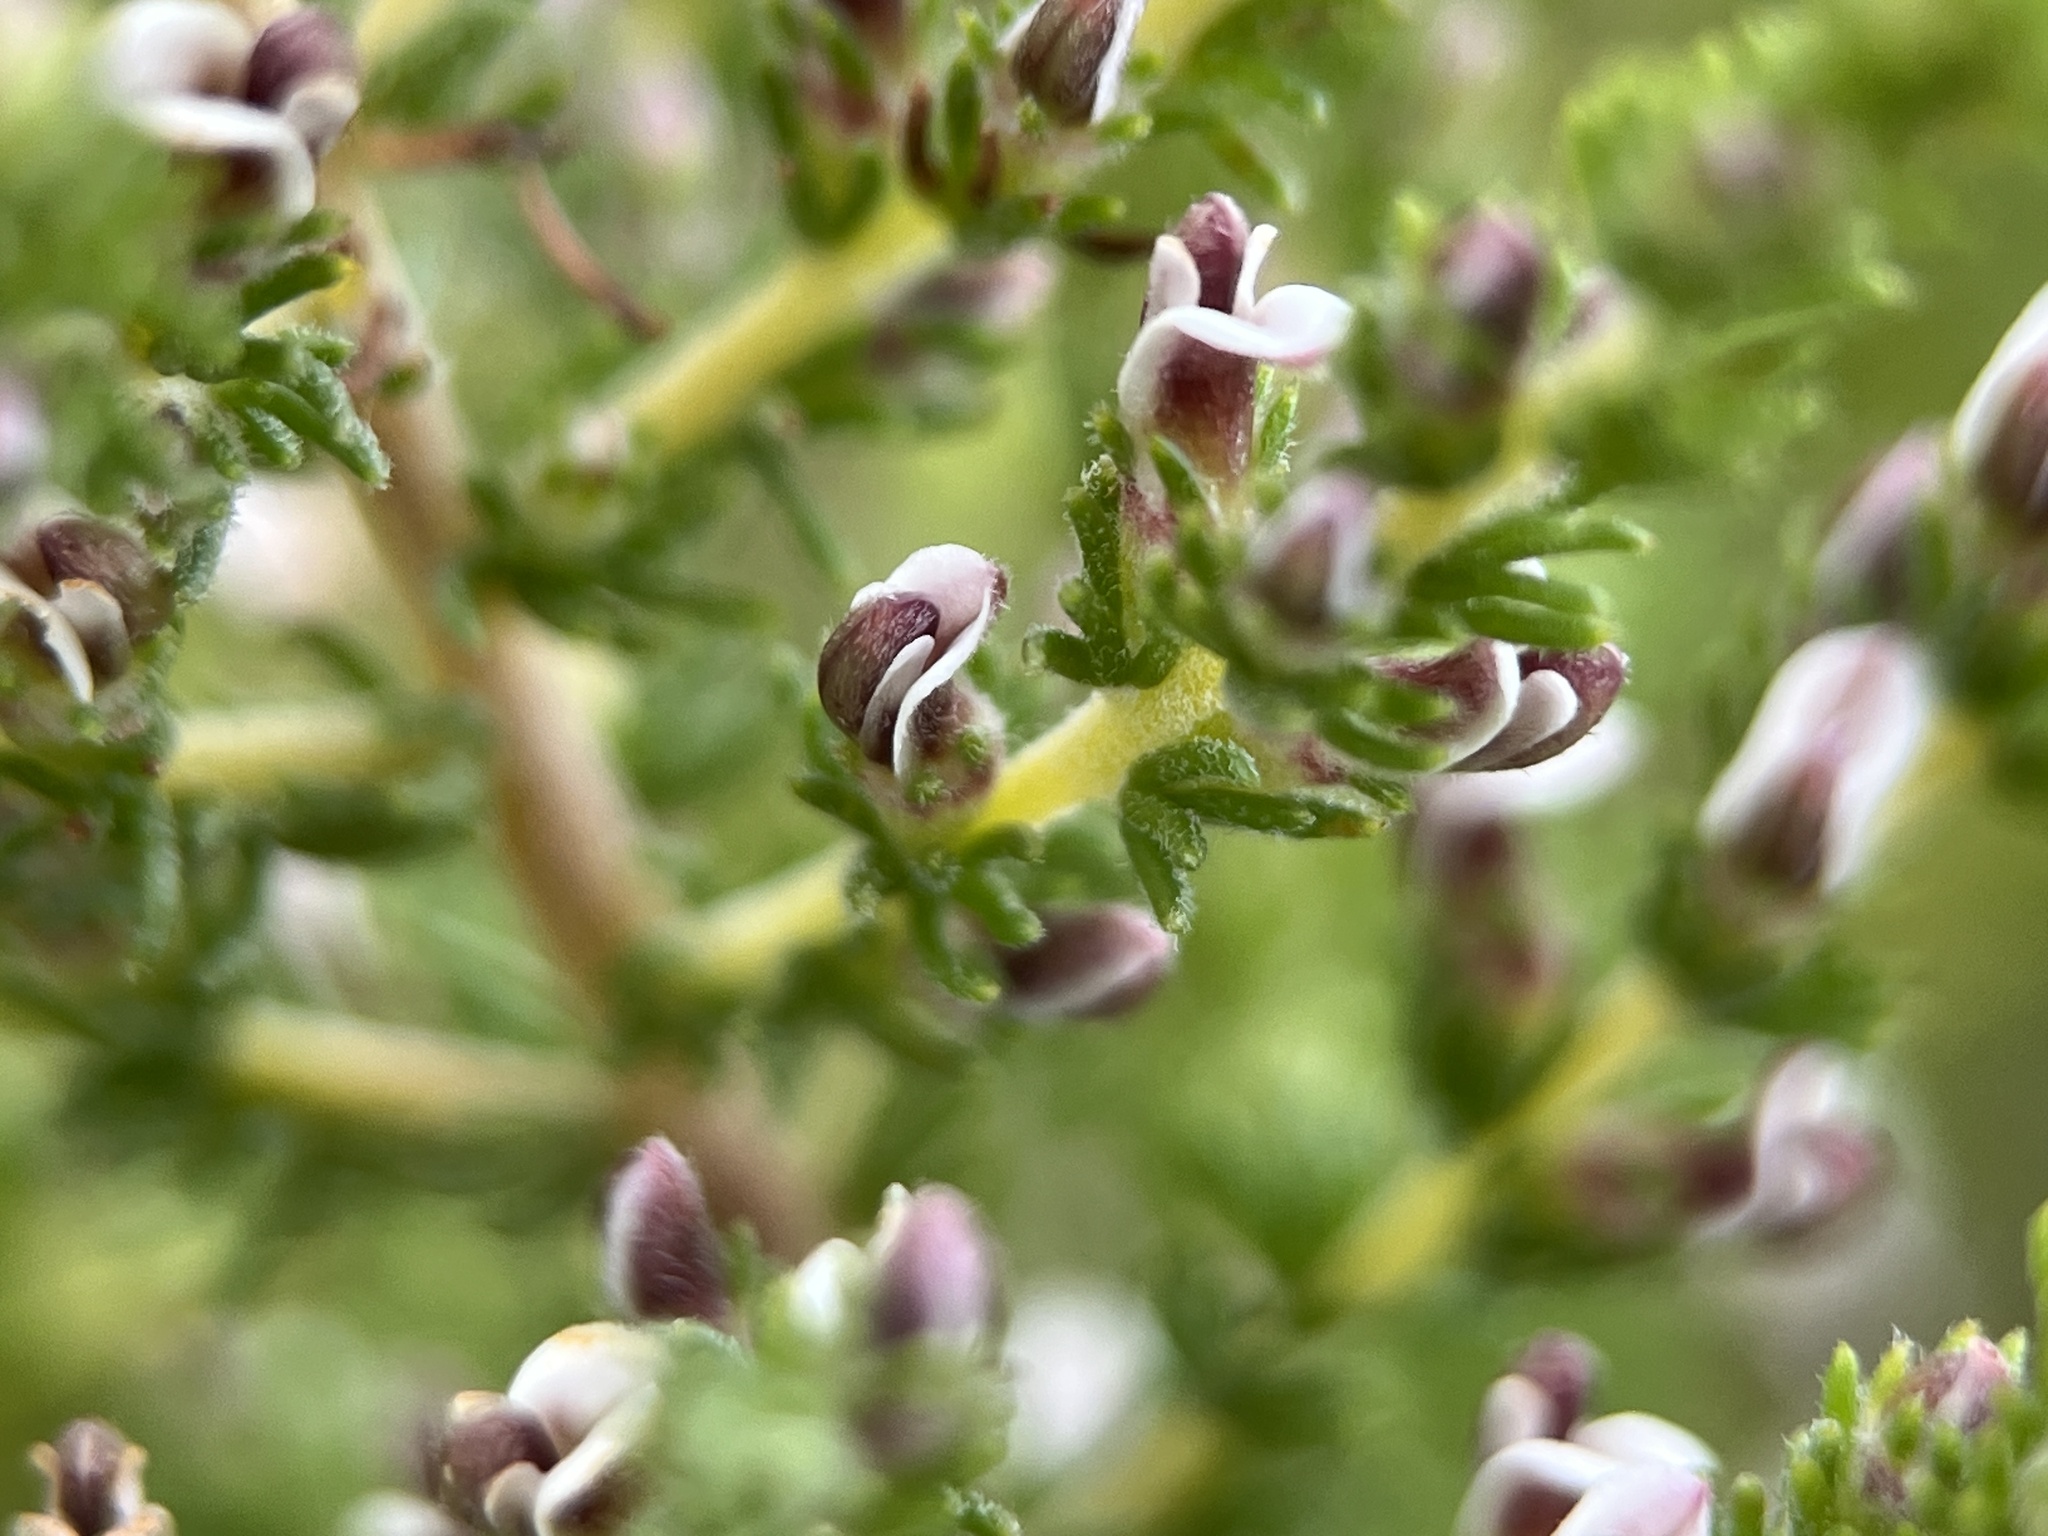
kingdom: Plantae
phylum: Tracheophyta
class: Magnoliopsida
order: Fabales
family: Fabaceae
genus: Aspalathus
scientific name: Aspalathus hispida
